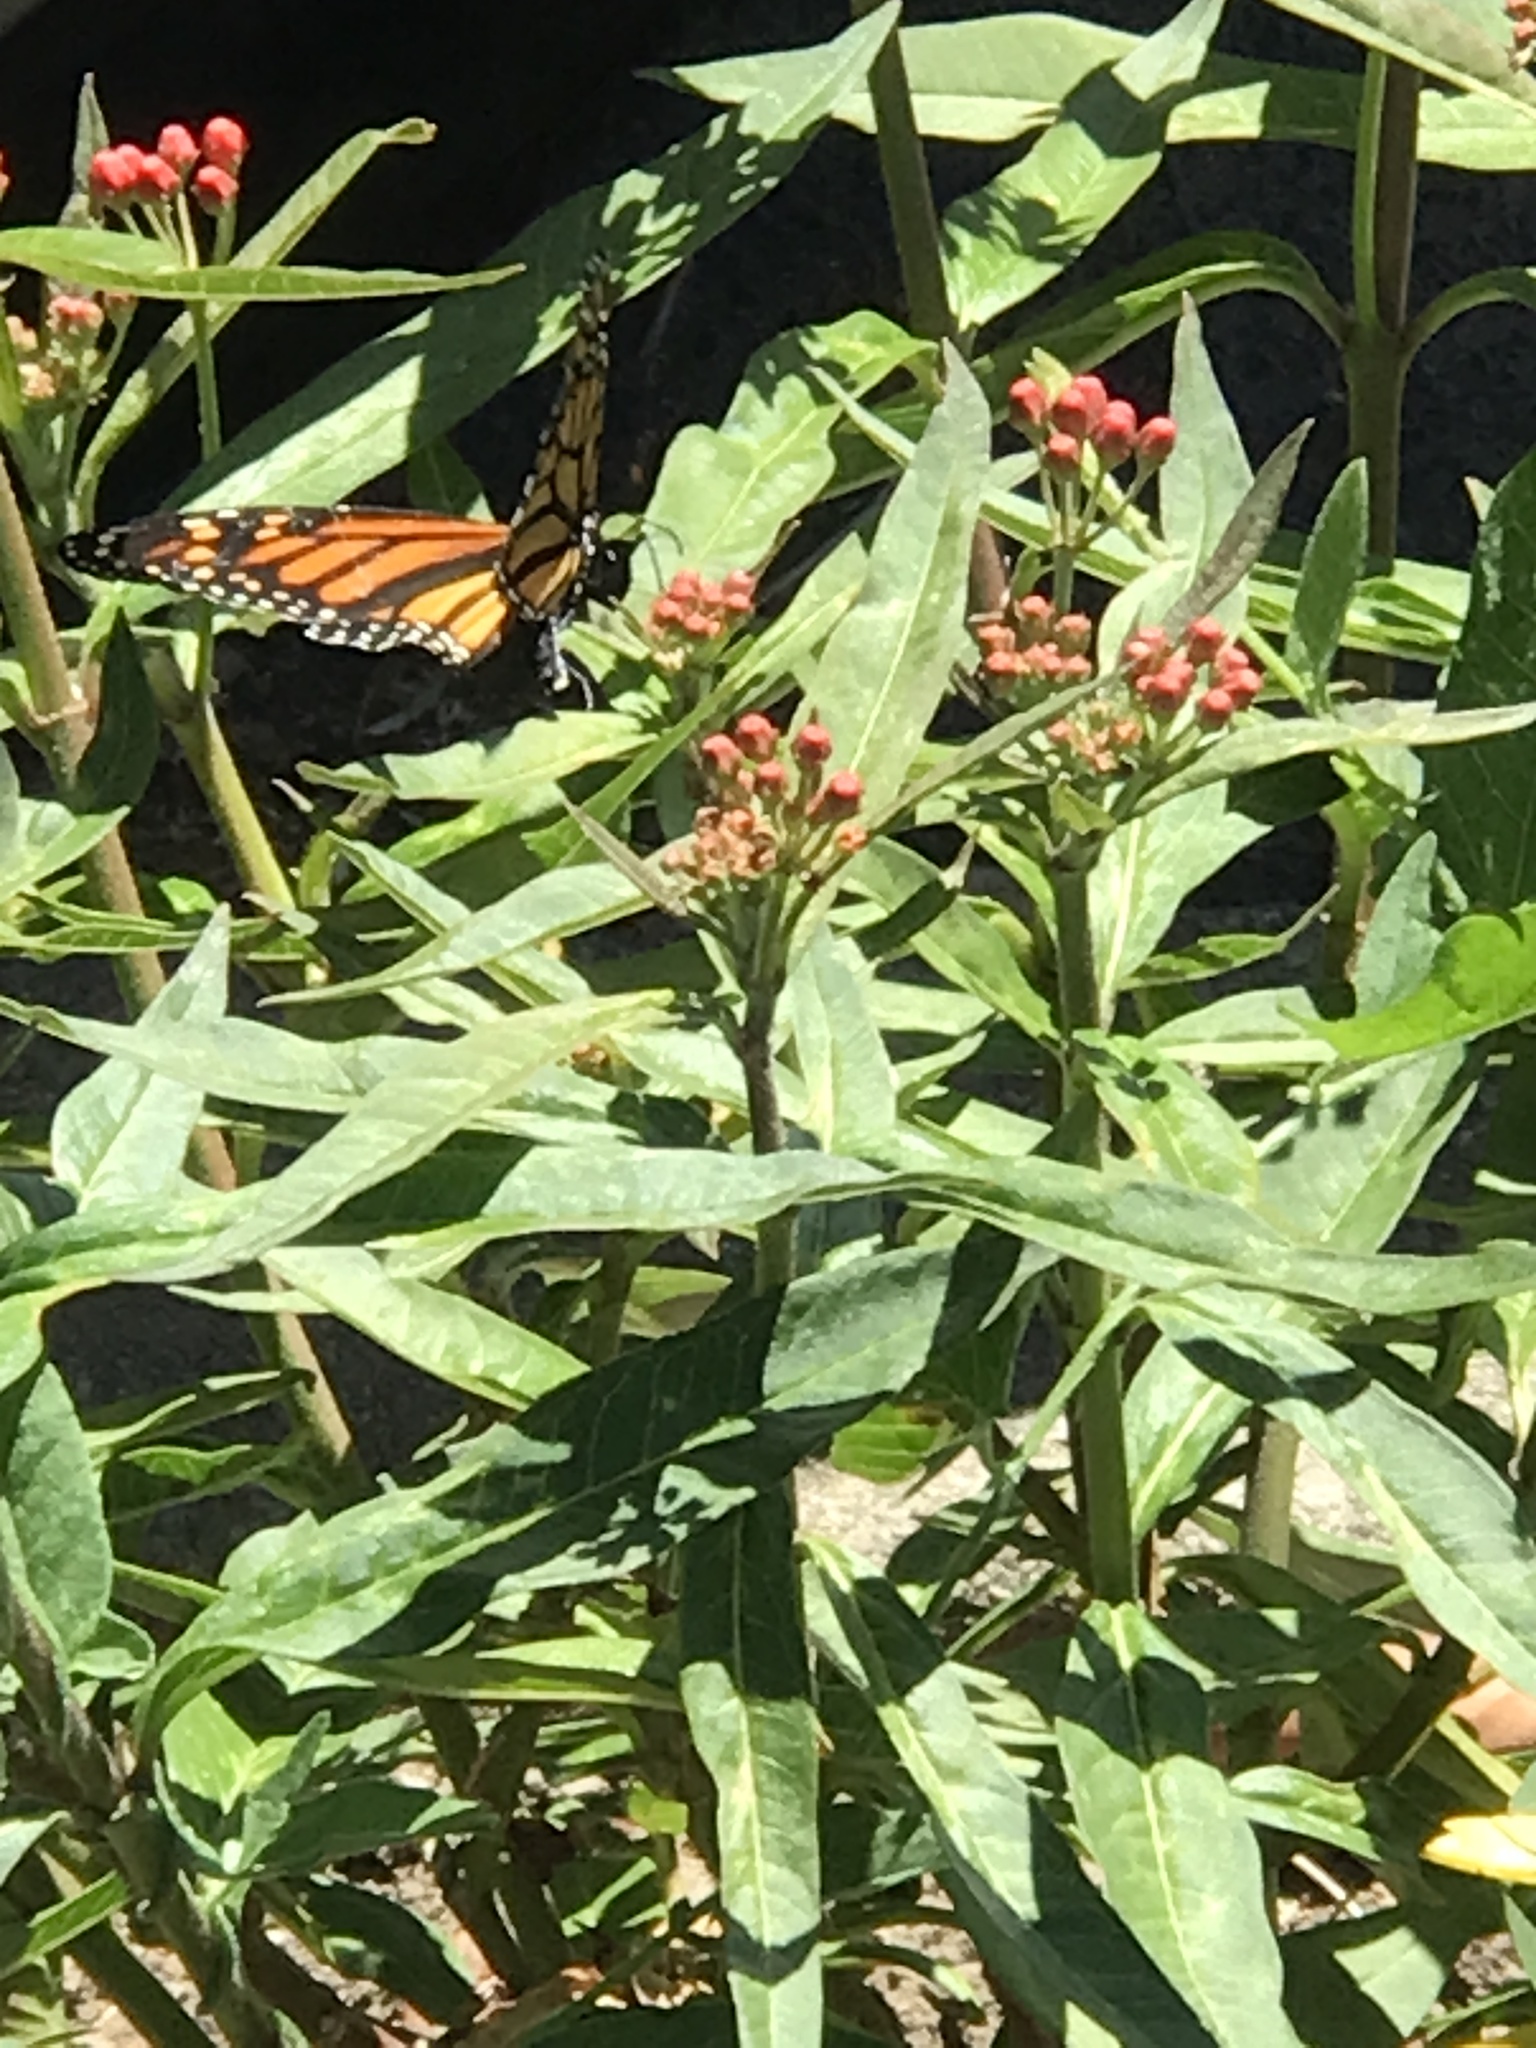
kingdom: Animalia
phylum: Arthropoda
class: Insecta
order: Lepidoptera
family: Nymphalidae
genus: Danaus
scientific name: Danaus plexippus
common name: Monarch
